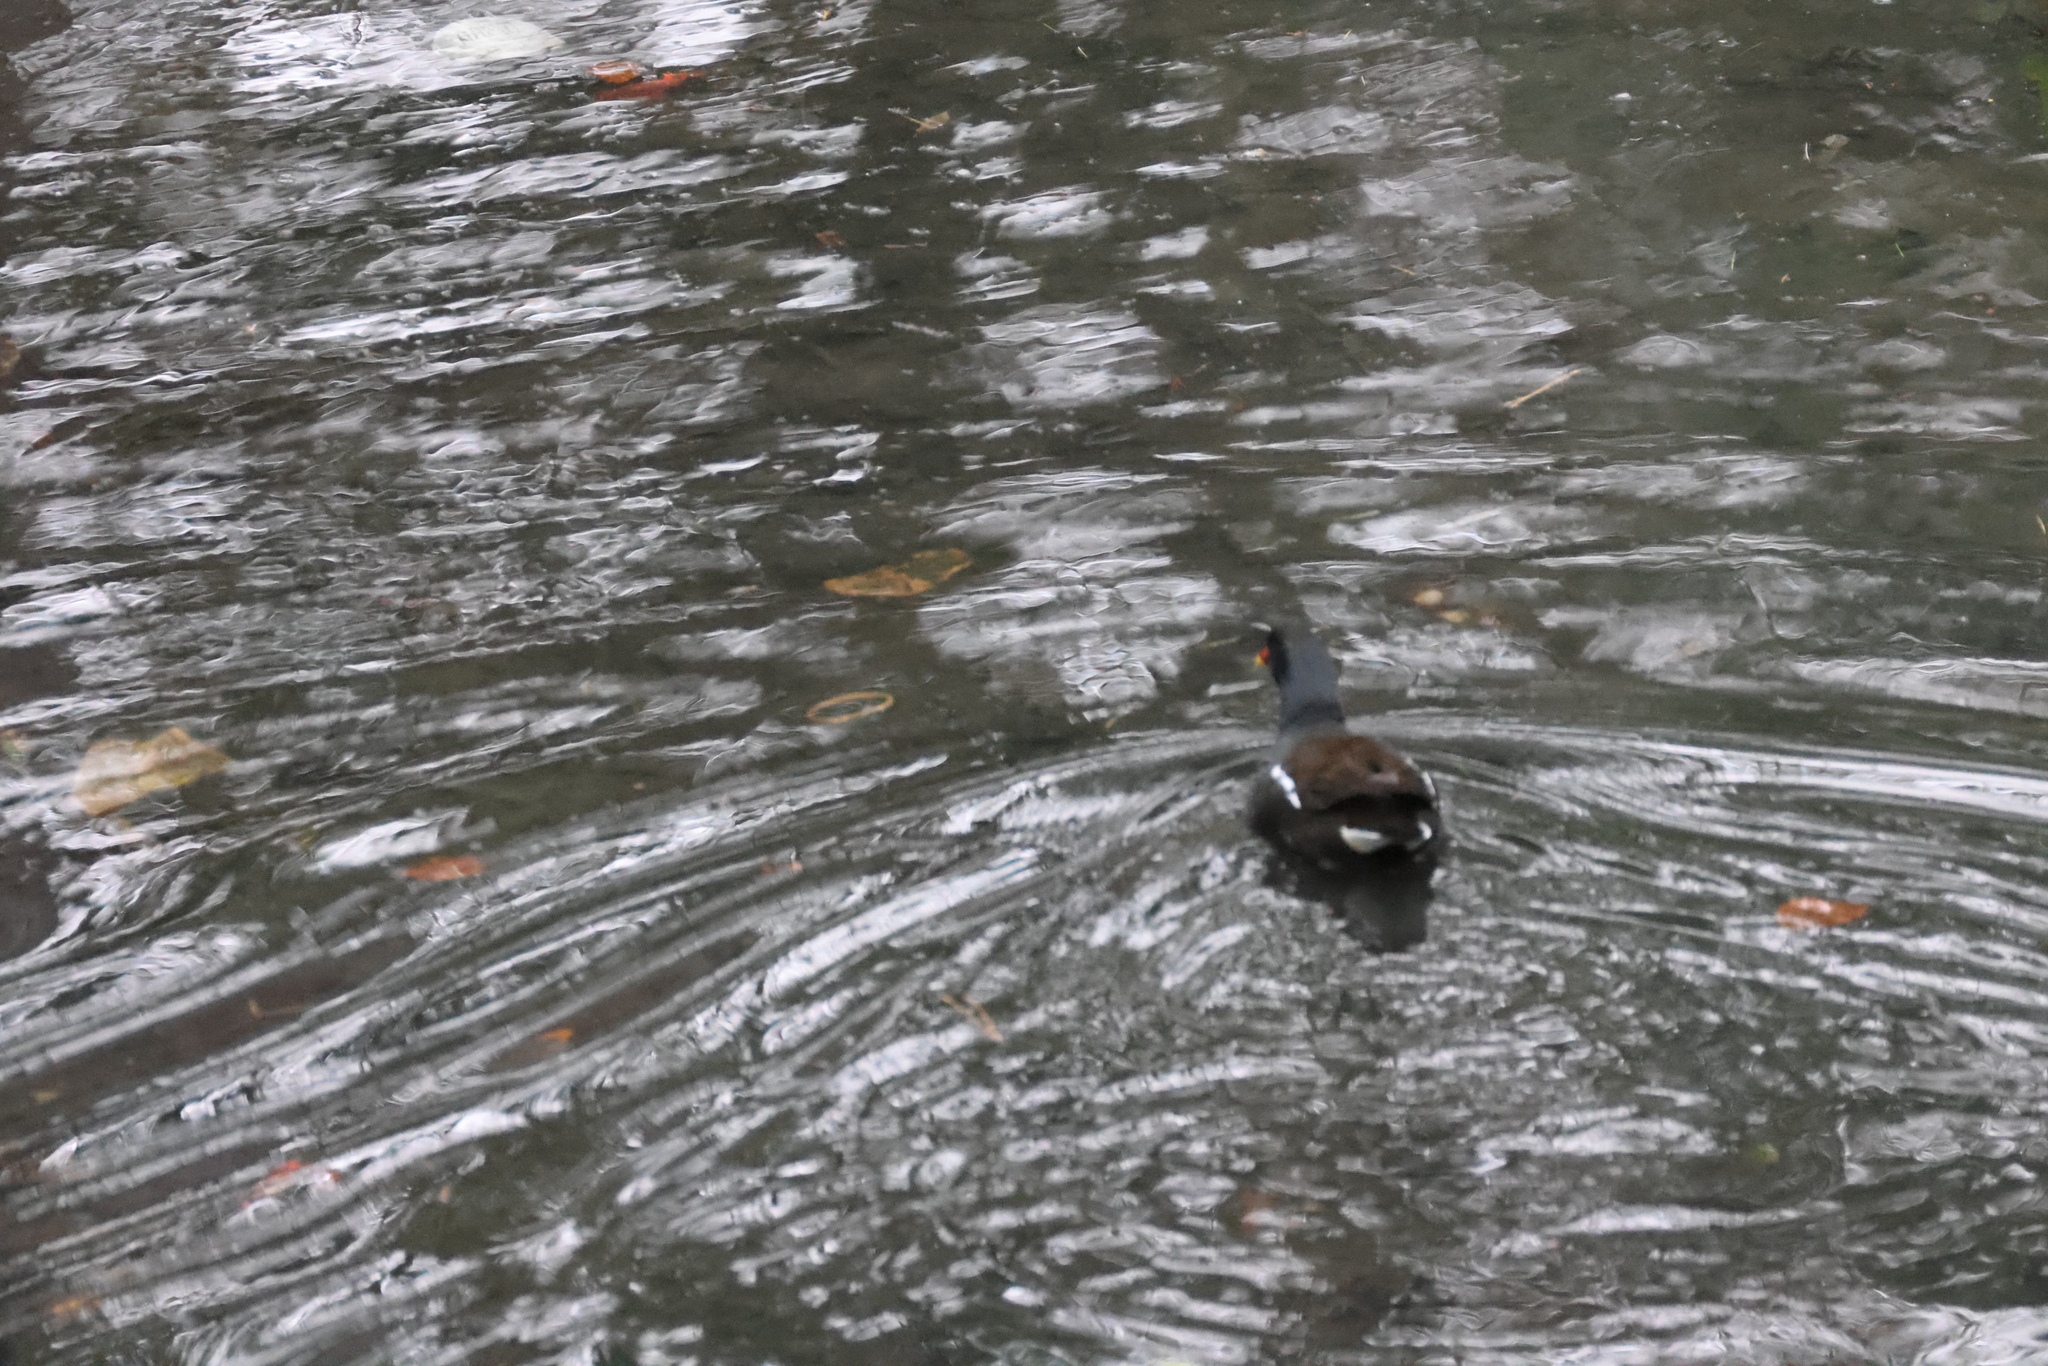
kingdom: Animalia
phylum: Chordata
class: Aves
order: Gruiformes
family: Rallidae
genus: Gallinula
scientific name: Gallinula chloropus
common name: Common moorhen
